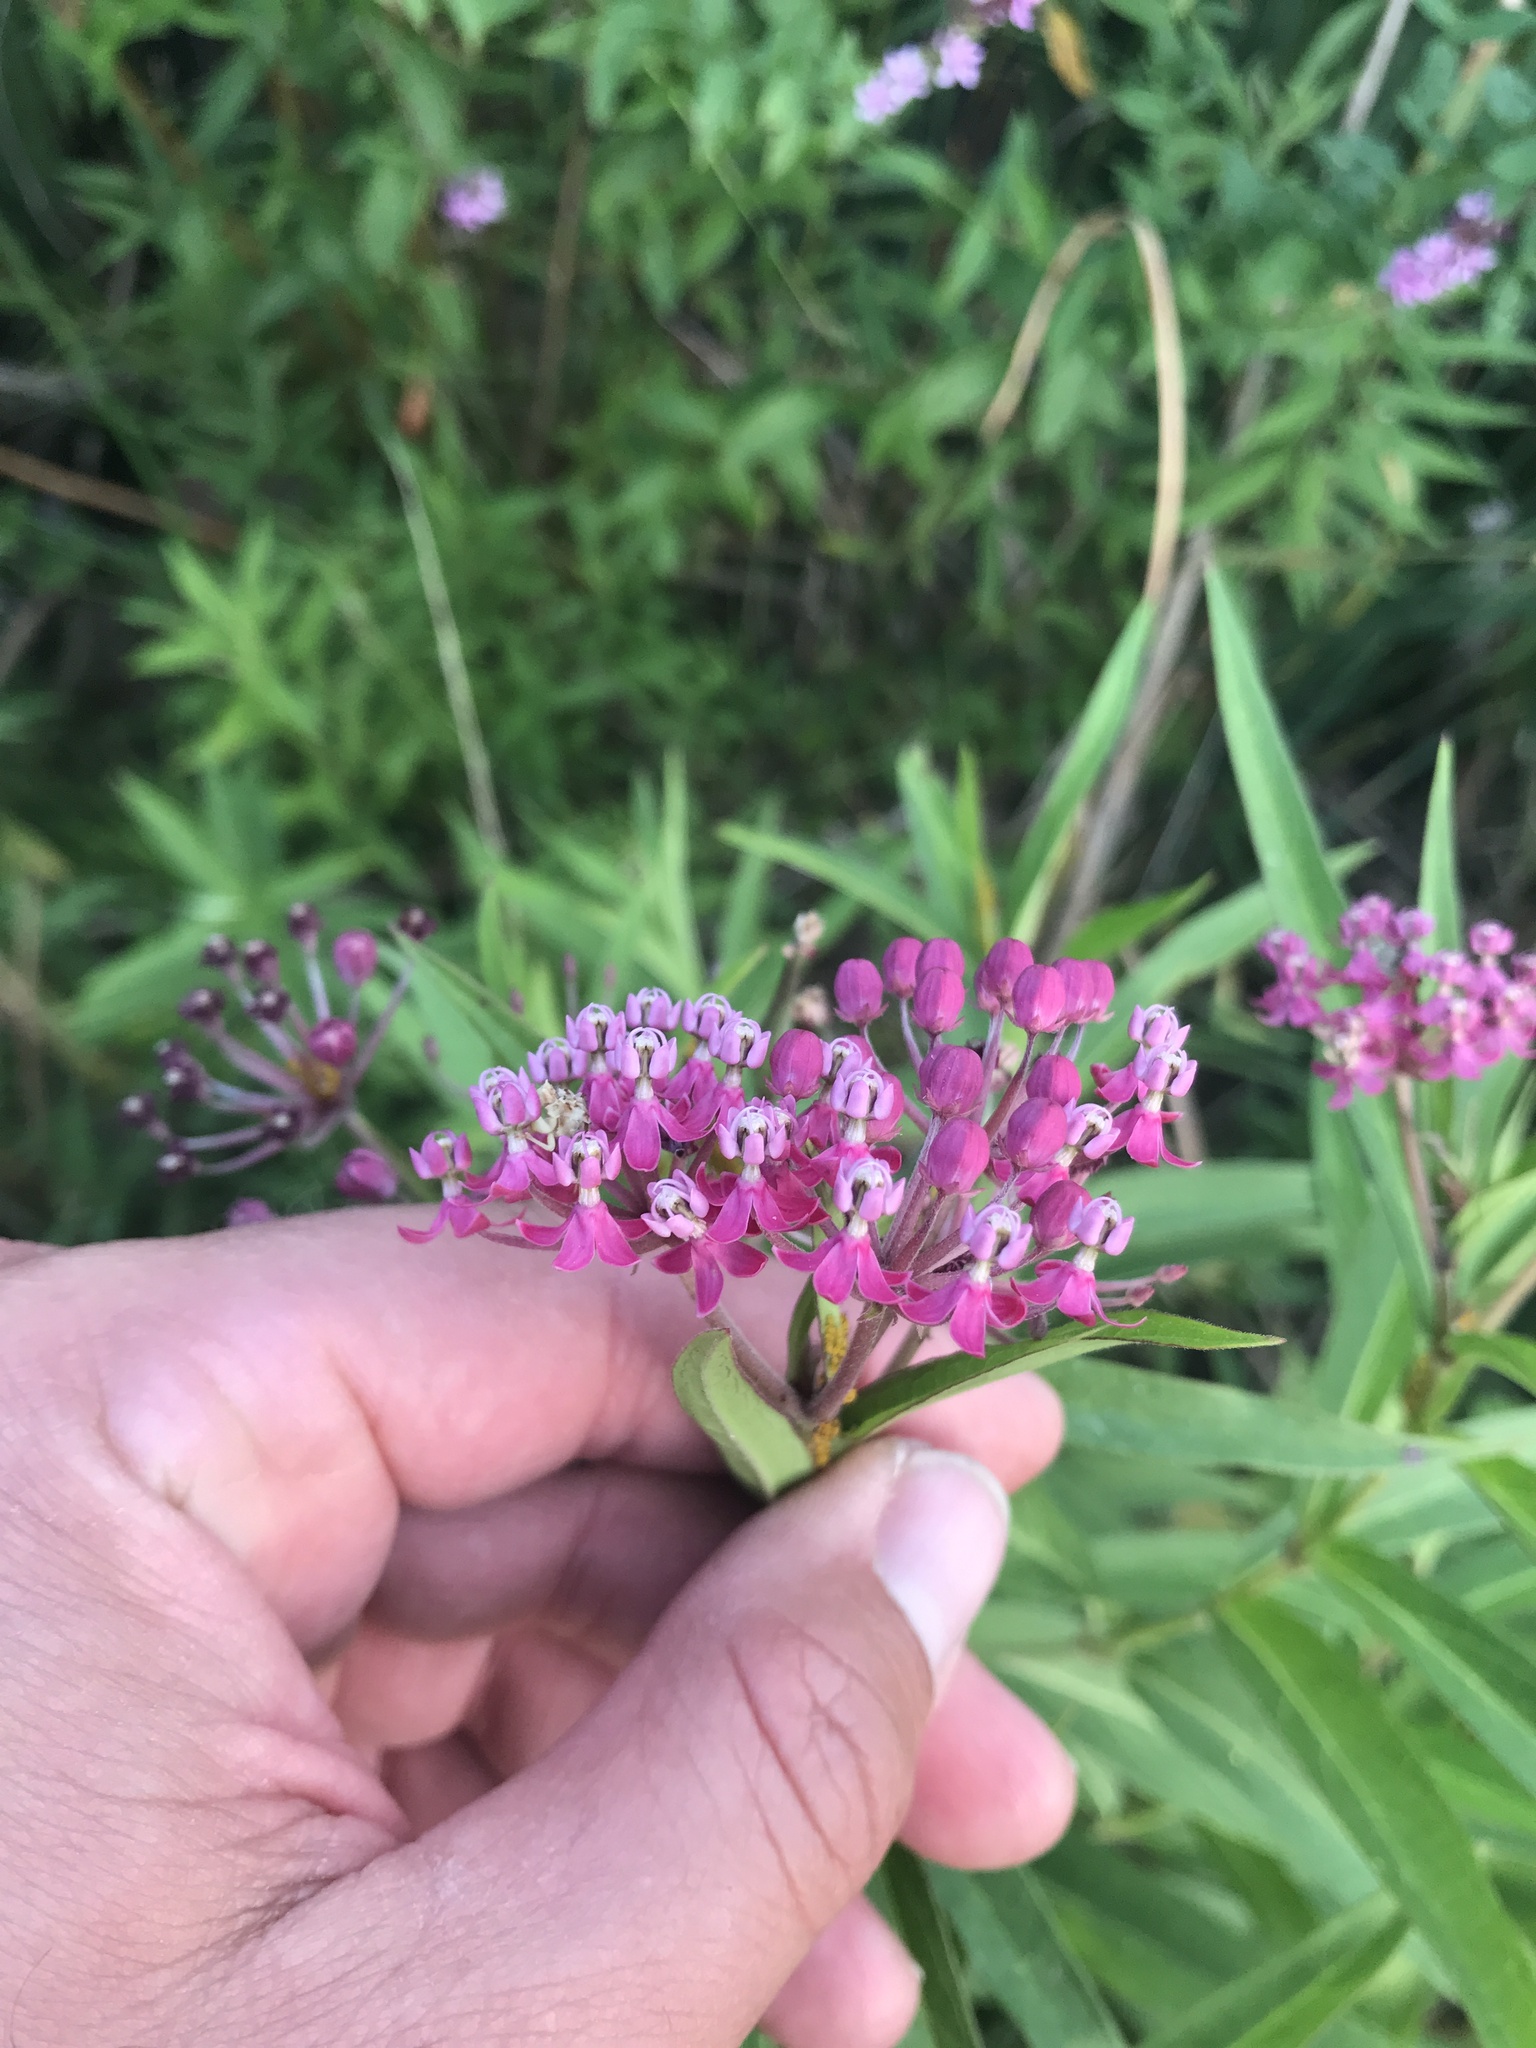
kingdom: Plantae
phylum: Tracheophyta
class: Magnoliopsida
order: Gentianales
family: Apocynaceae
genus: Asclepias
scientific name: Asclepias incarnata
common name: Swamp milkweed
